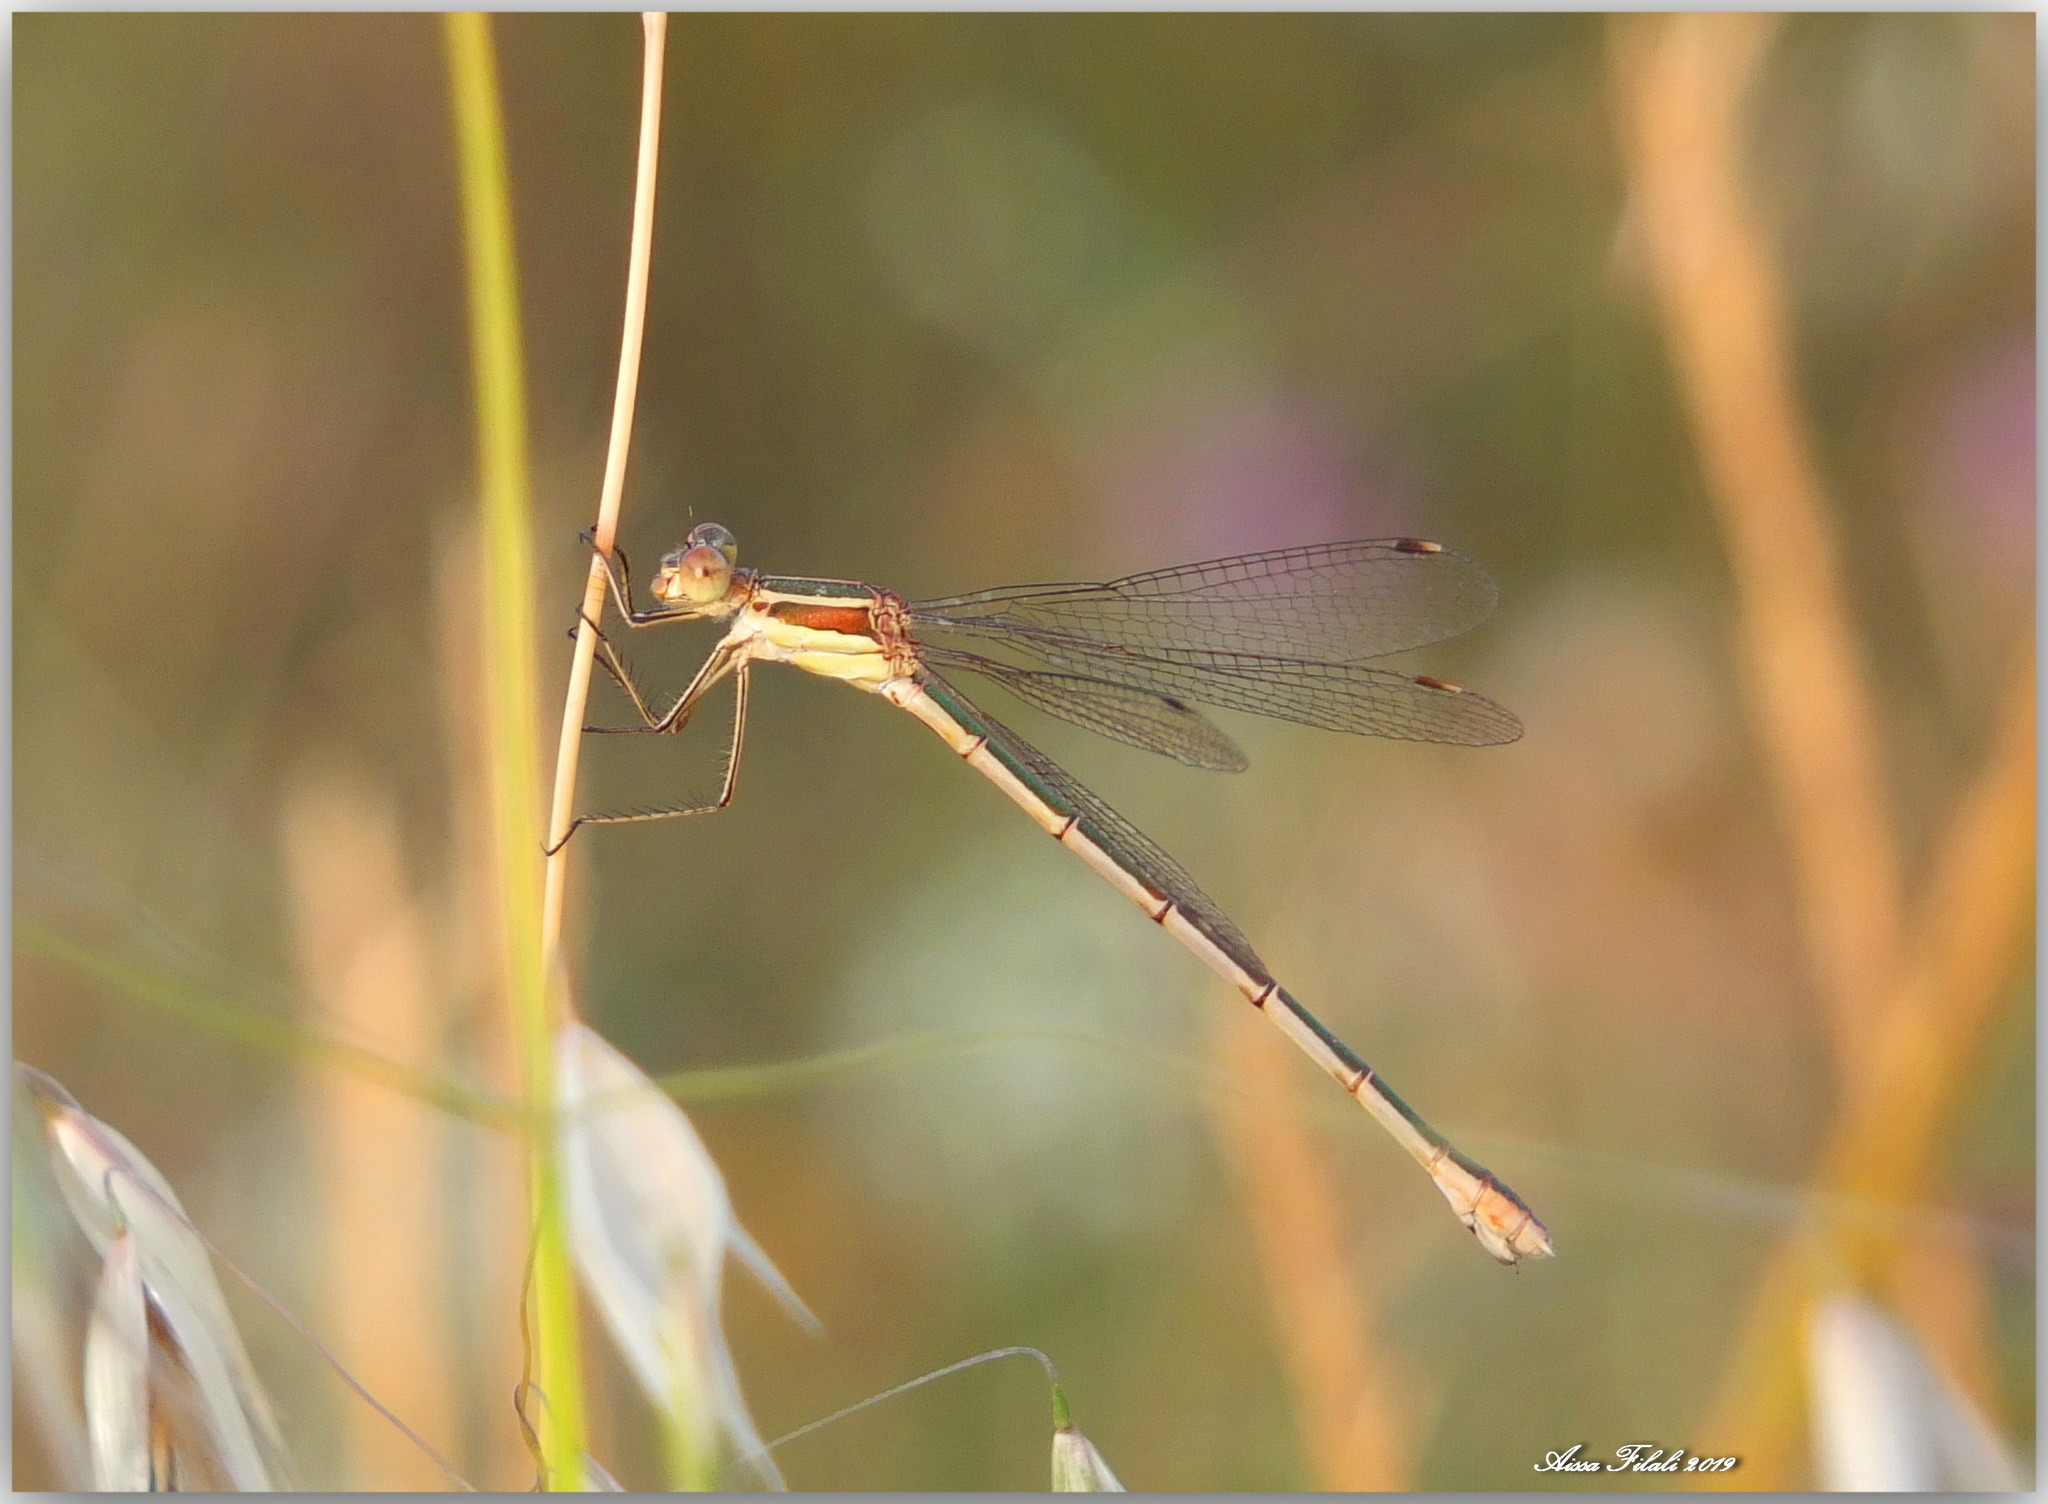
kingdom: Animalia
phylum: Arthropoda
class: Insecta
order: Odonata
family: Lestidae
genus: Lestes
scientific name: Lestes barbarus
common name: Migrant spreadwing
